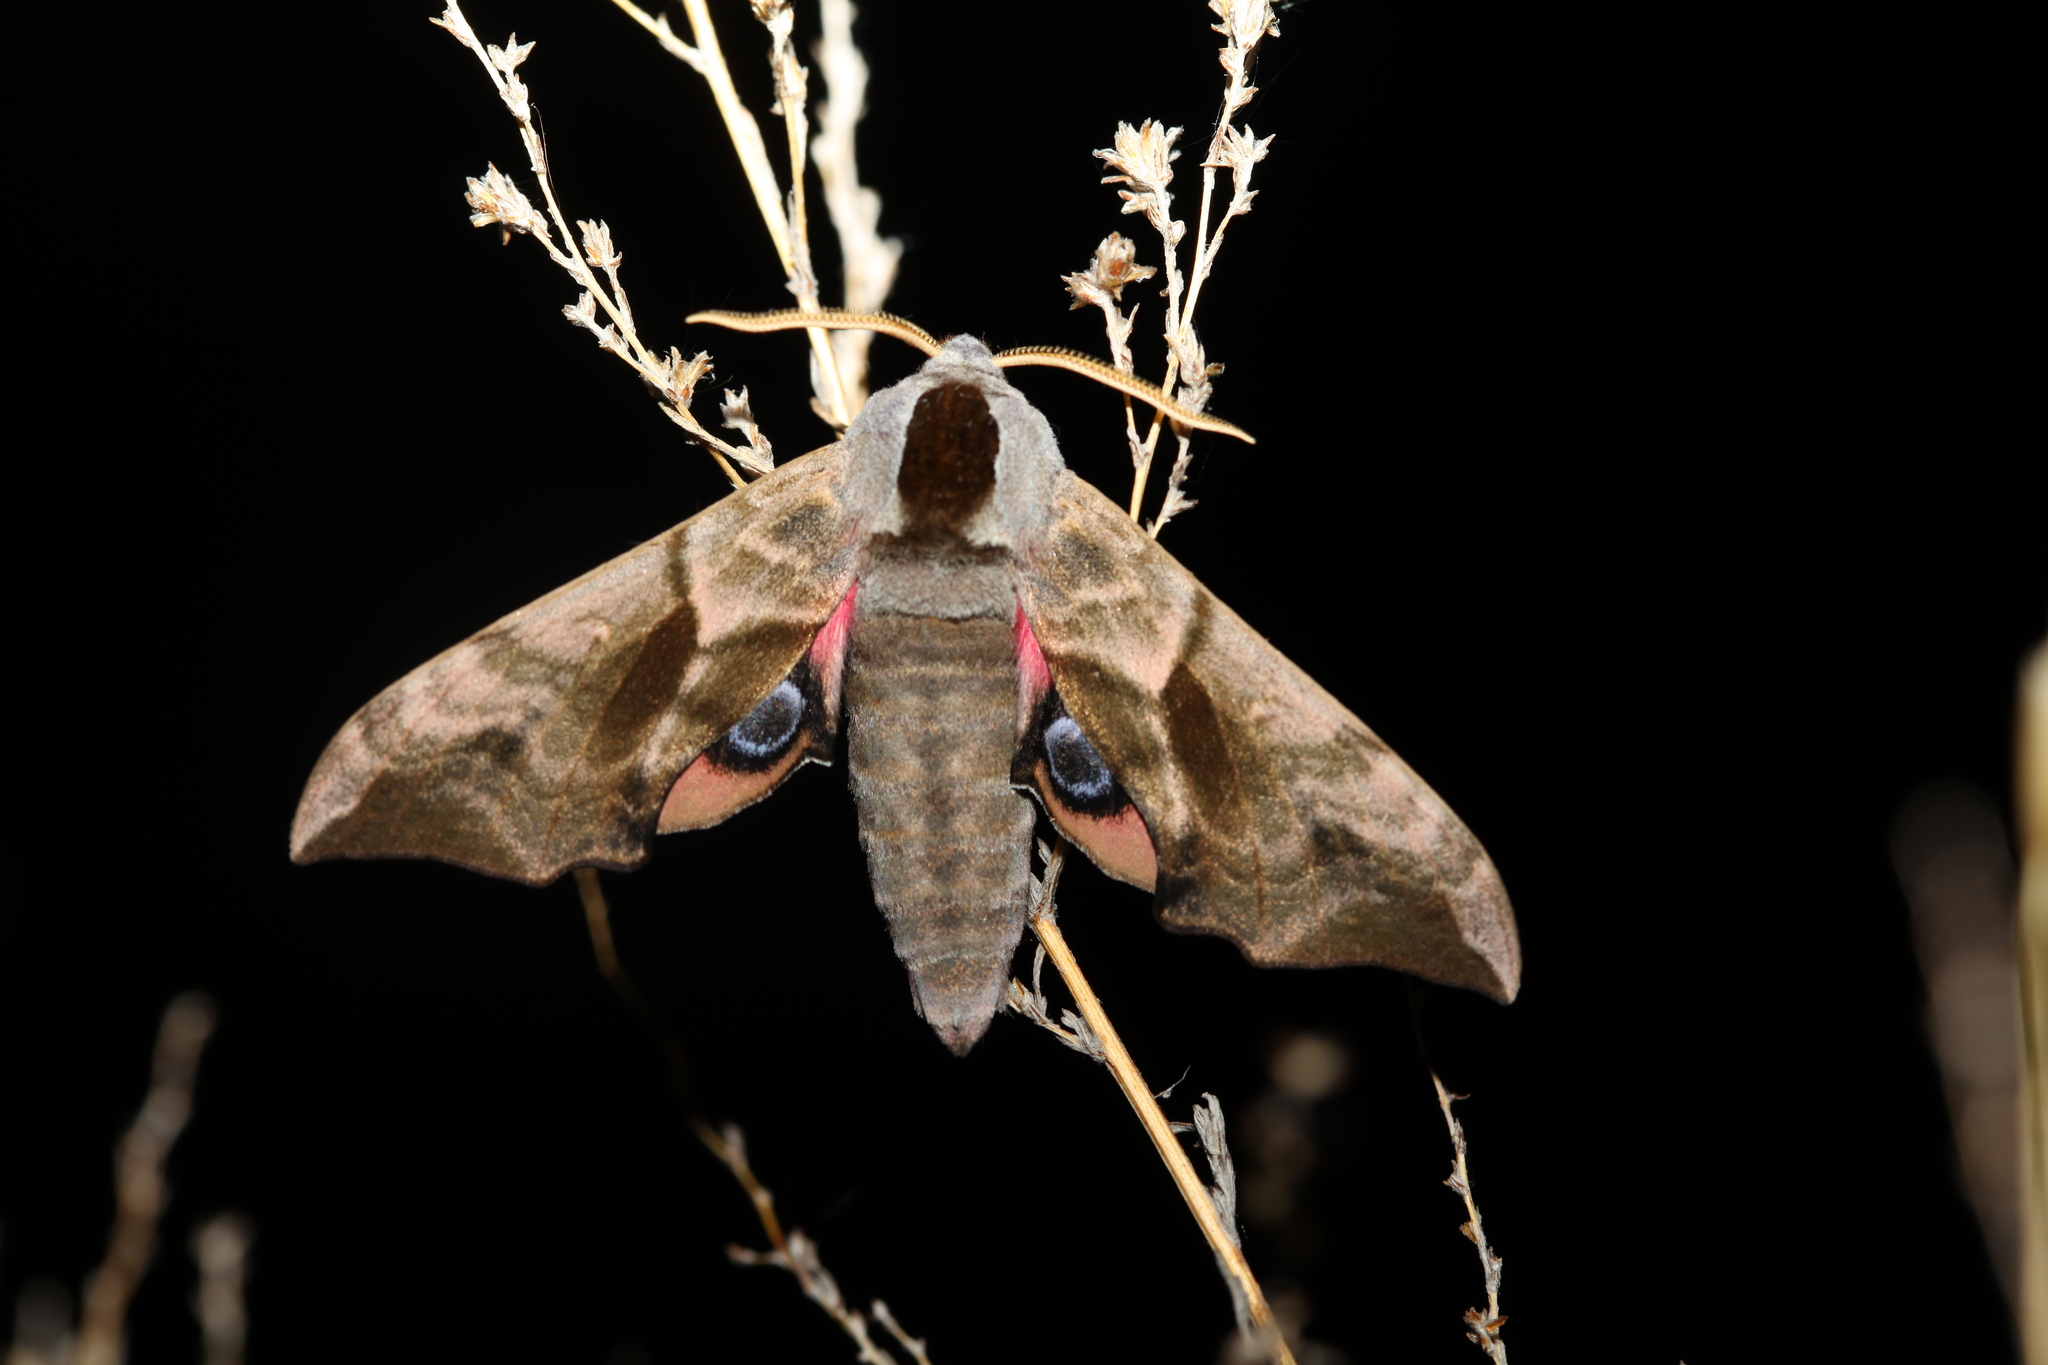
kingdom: Animalia
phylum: Arthropoda
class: Insecta
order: Lepidoptera
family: Sphingidae
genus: Smerinthus
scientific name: Smerinthus ocellata
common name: Eyed hawk-moth
